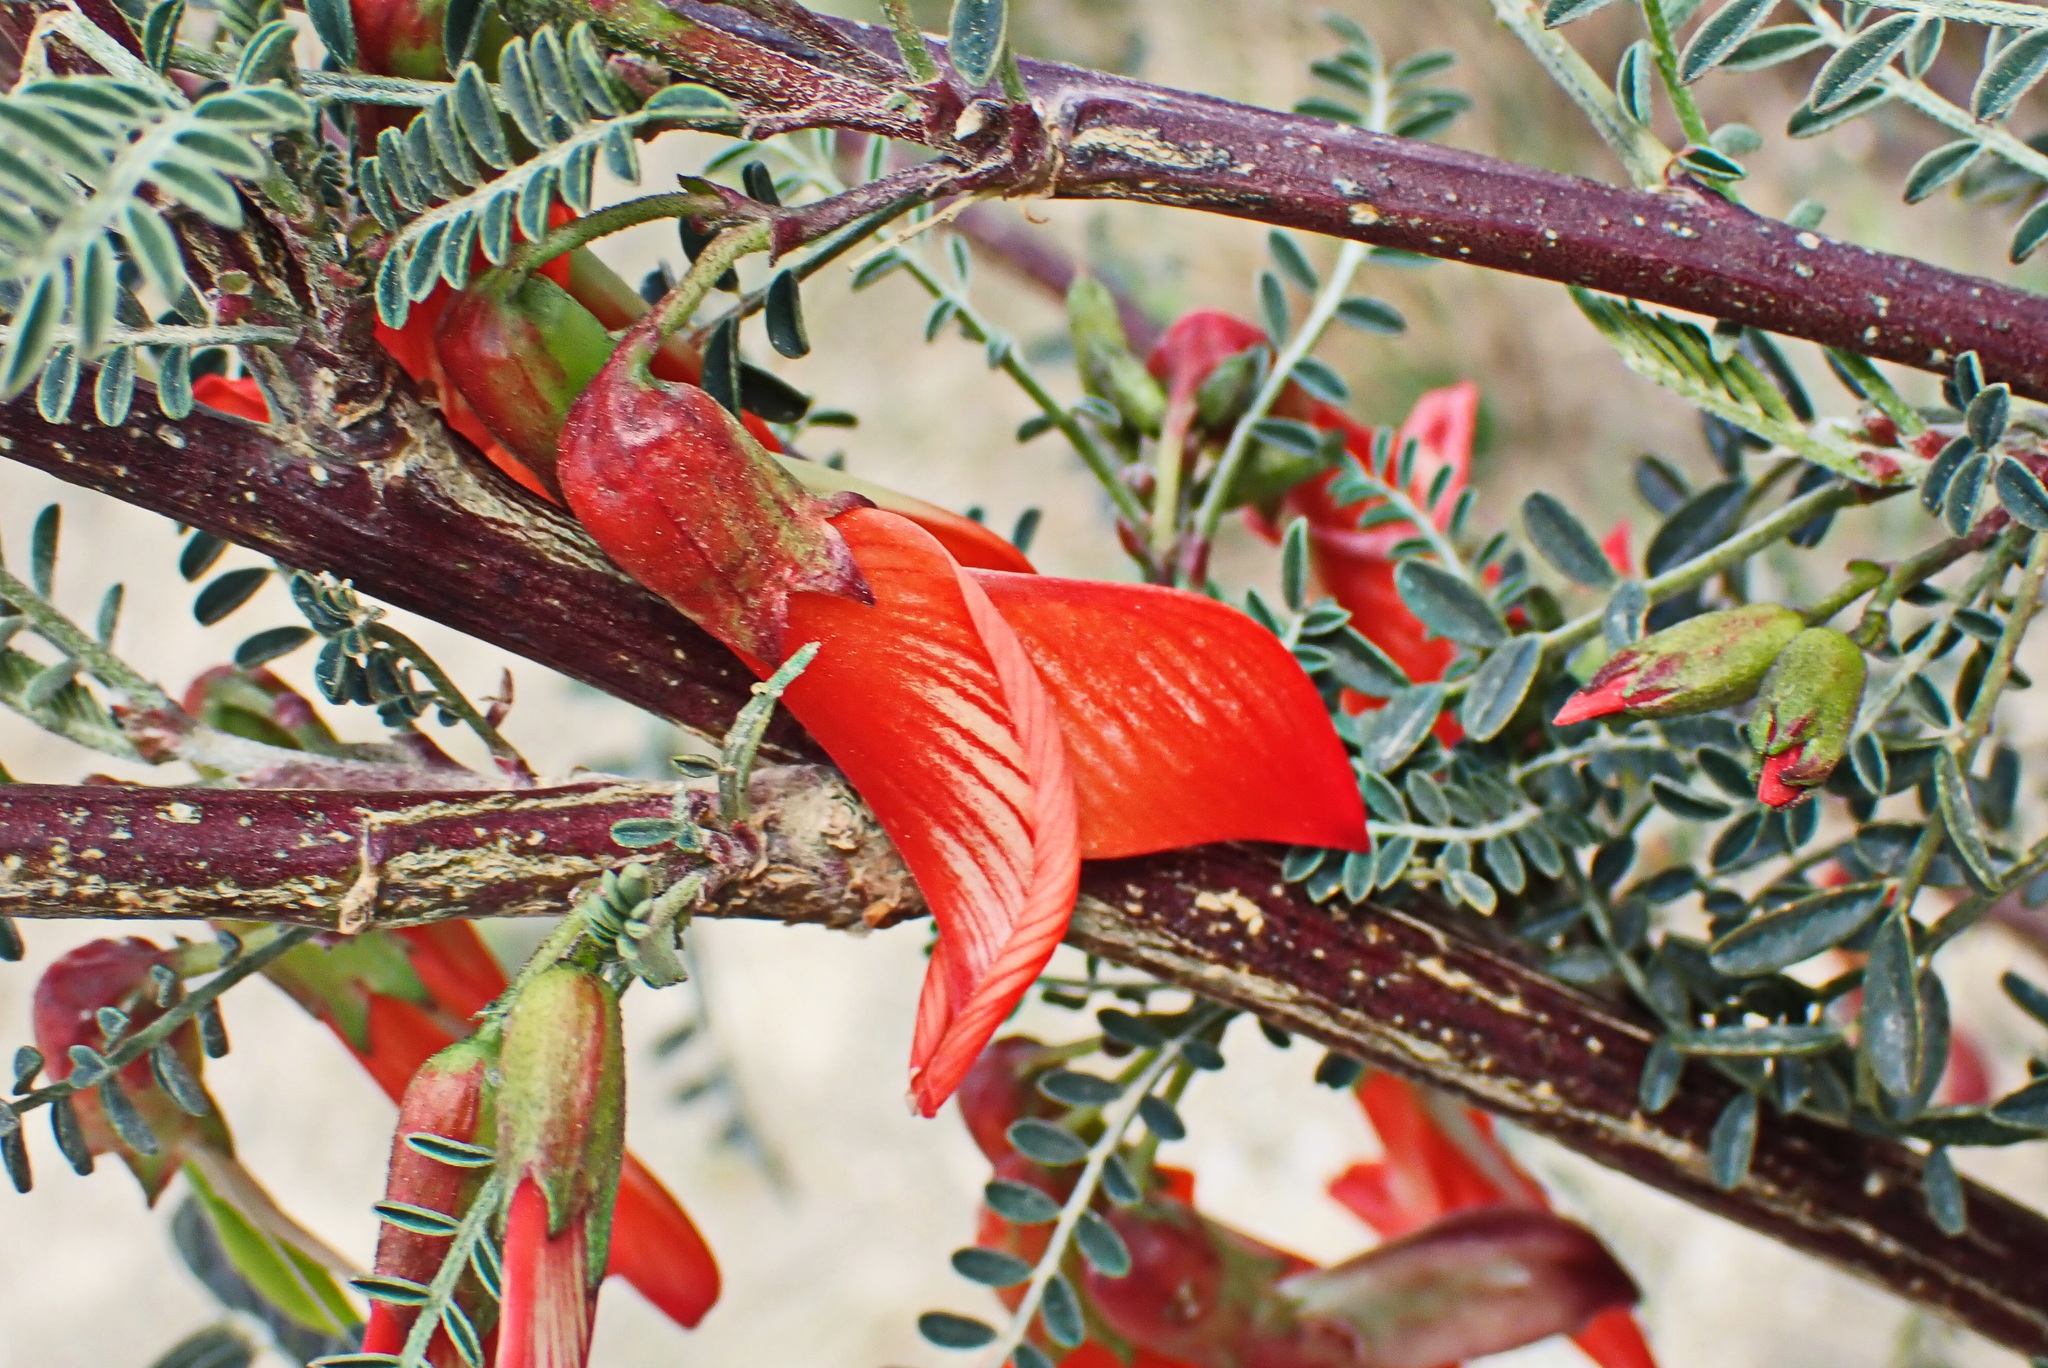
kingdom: Plantae
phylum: Tracheophyta
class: Magnoliopsida
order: Fabales
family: Fabaceae
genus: Lessertia
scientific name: Lessertia frutescens
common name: Balloon-pea
